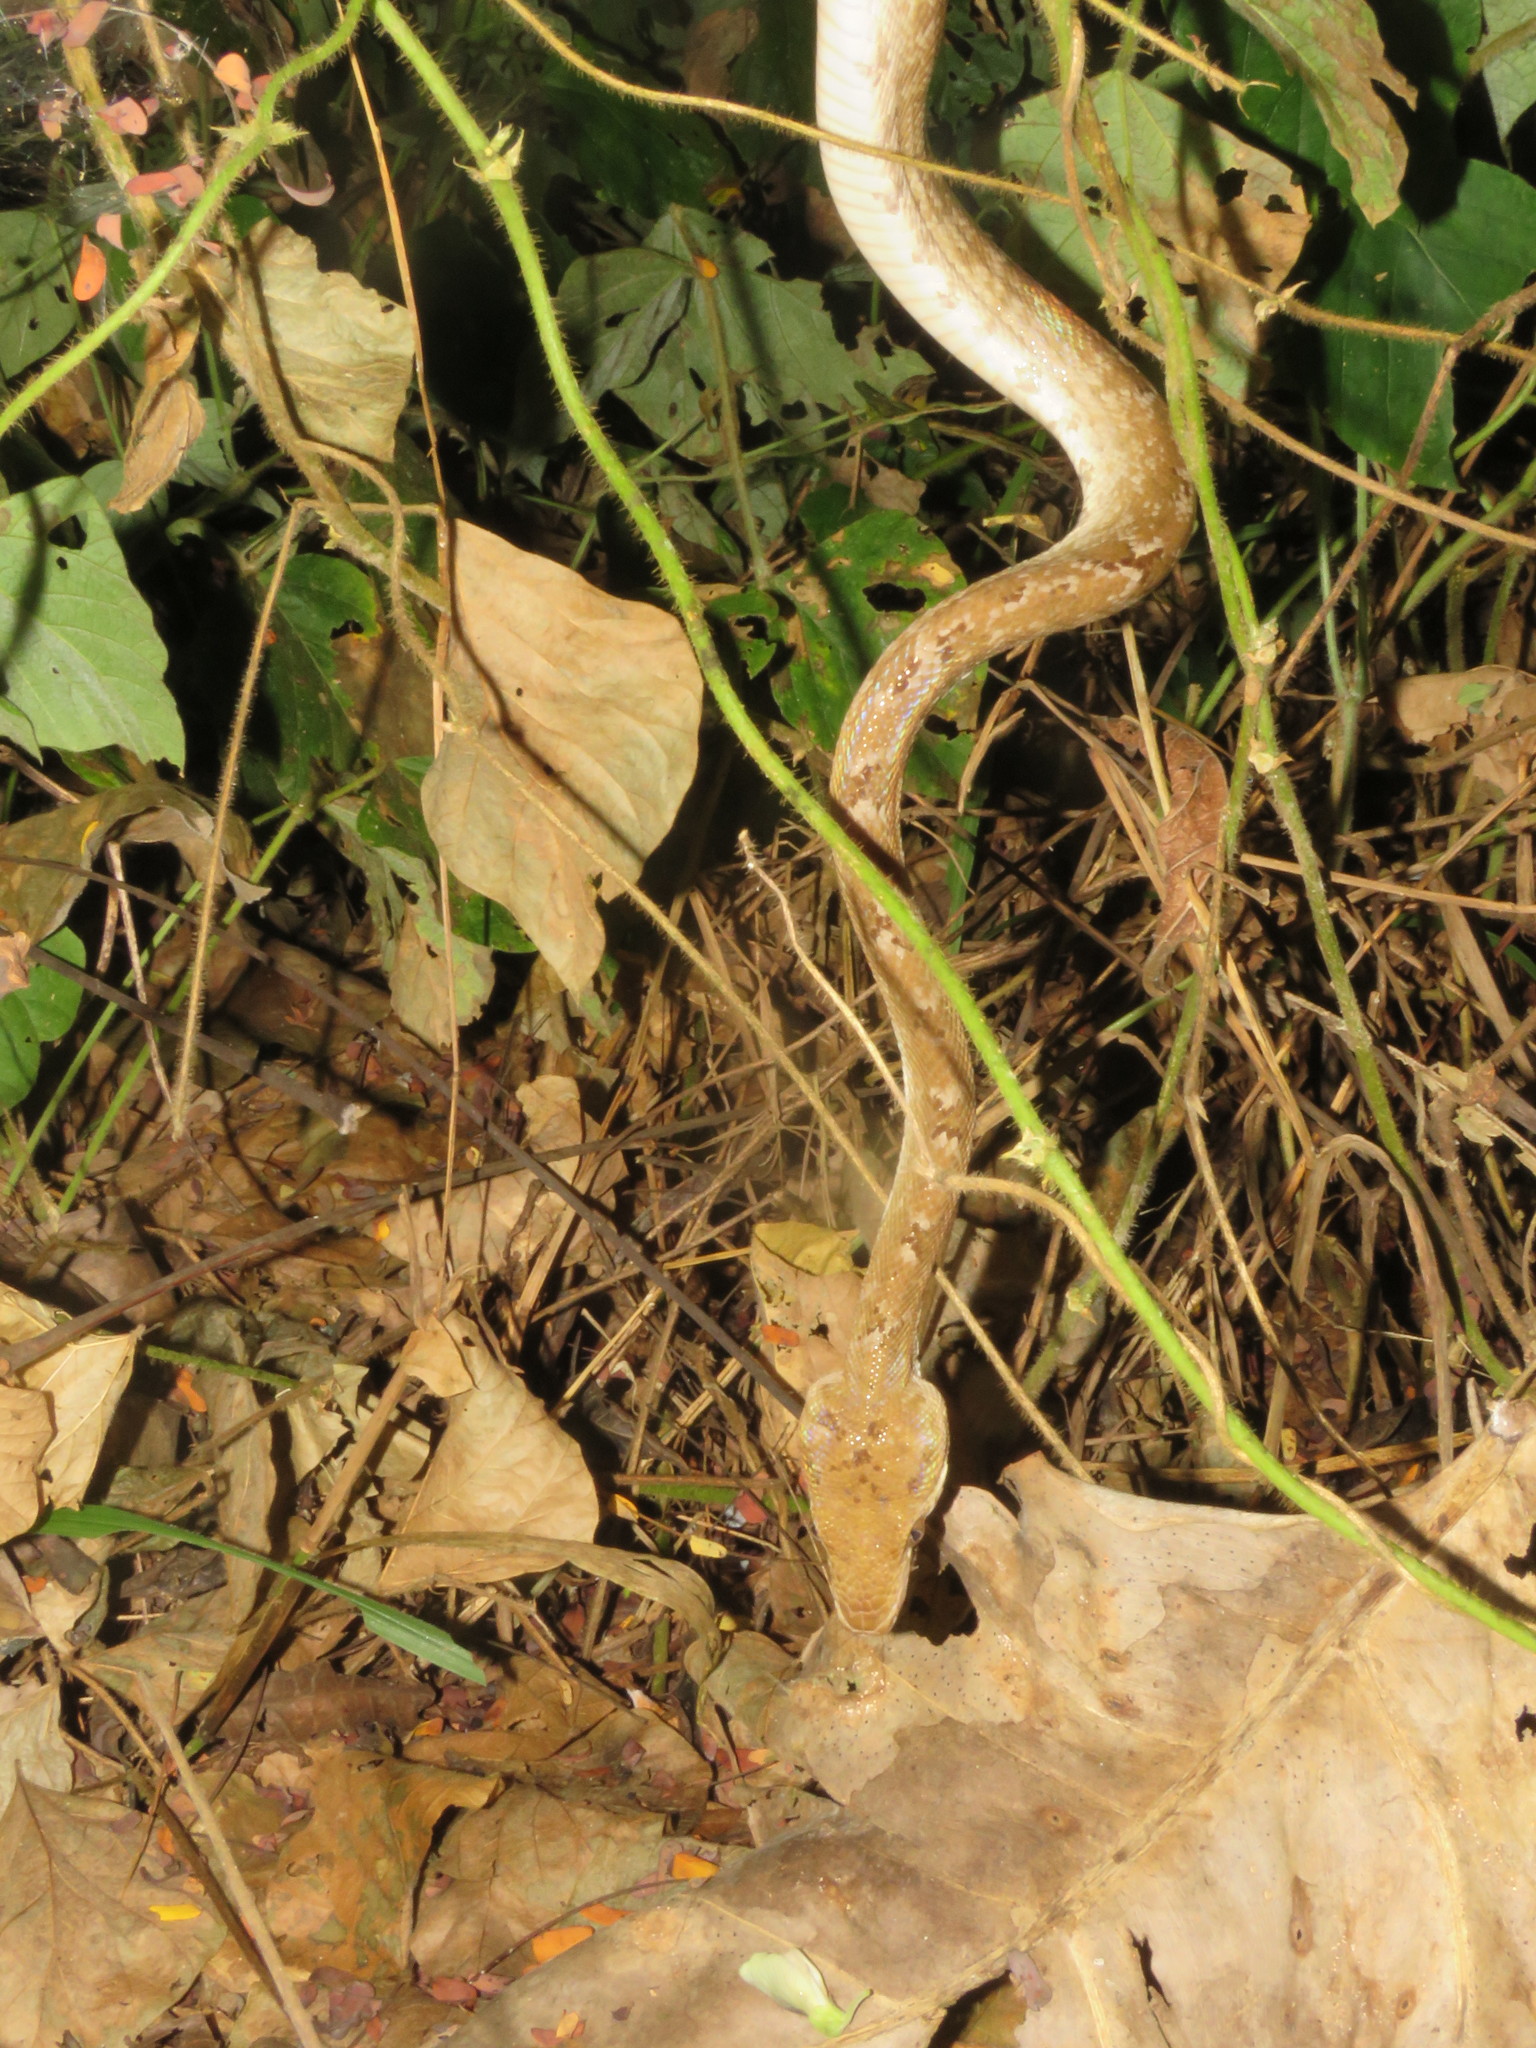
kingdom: Animalia
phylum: Chordata
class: Squamata
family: Boidae
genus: Corallus
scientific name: Corallus hortulana
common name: Garden tree boa
